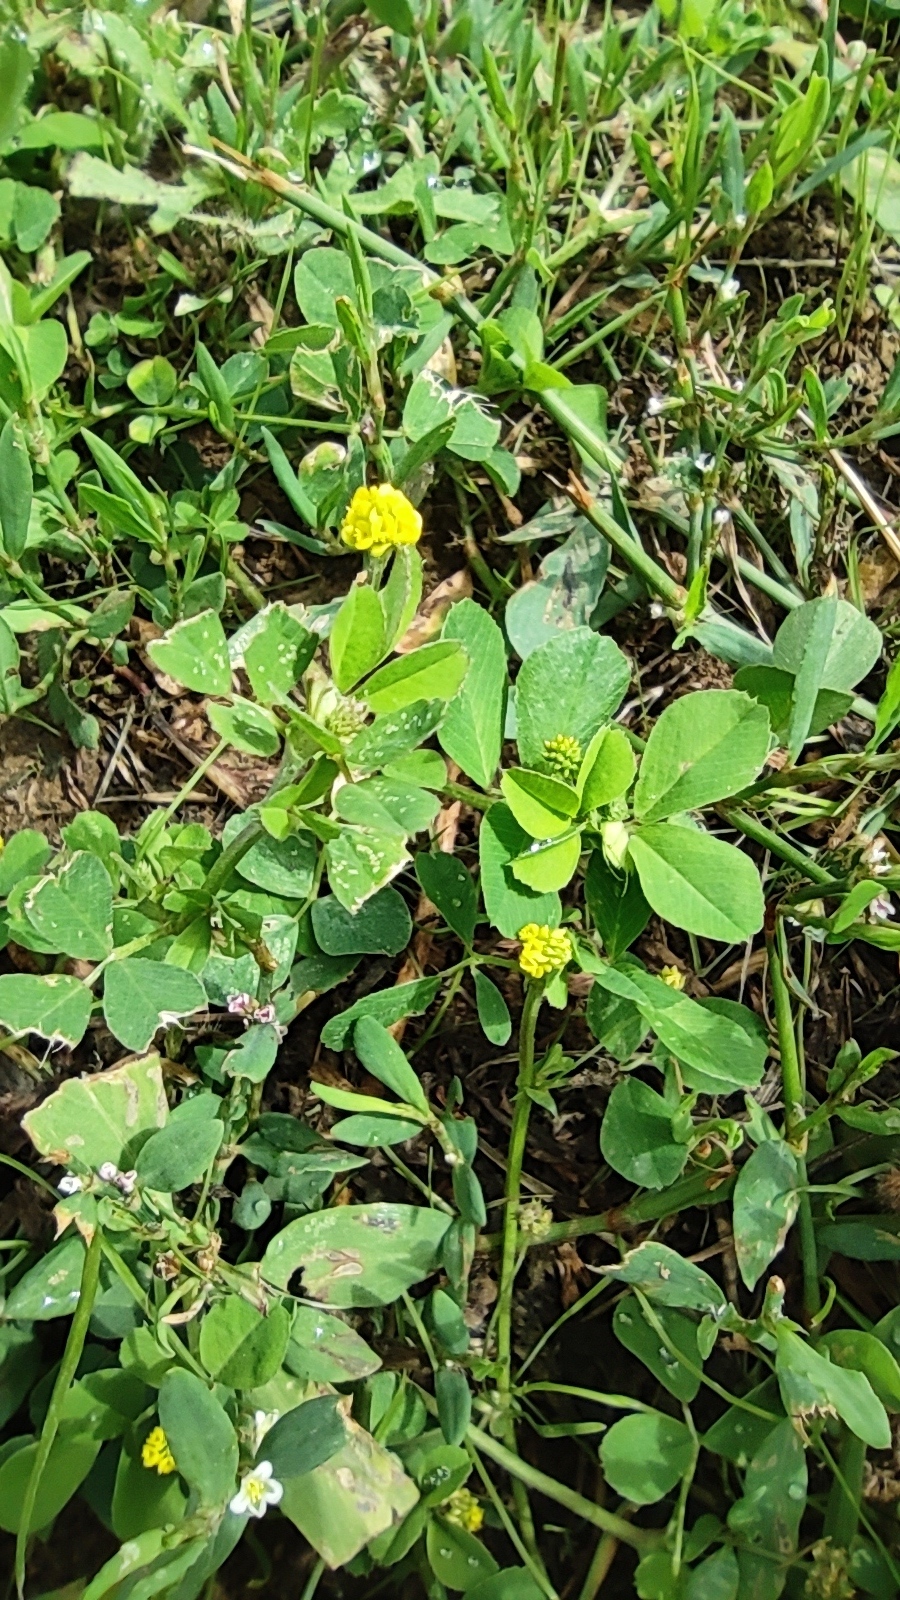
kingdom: Plantae
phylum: Tracheophyta
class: Magnoliopsida
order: Fabales
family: Fabaceae
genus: Medicago
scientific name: Medicago lupulina
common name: Black medick
